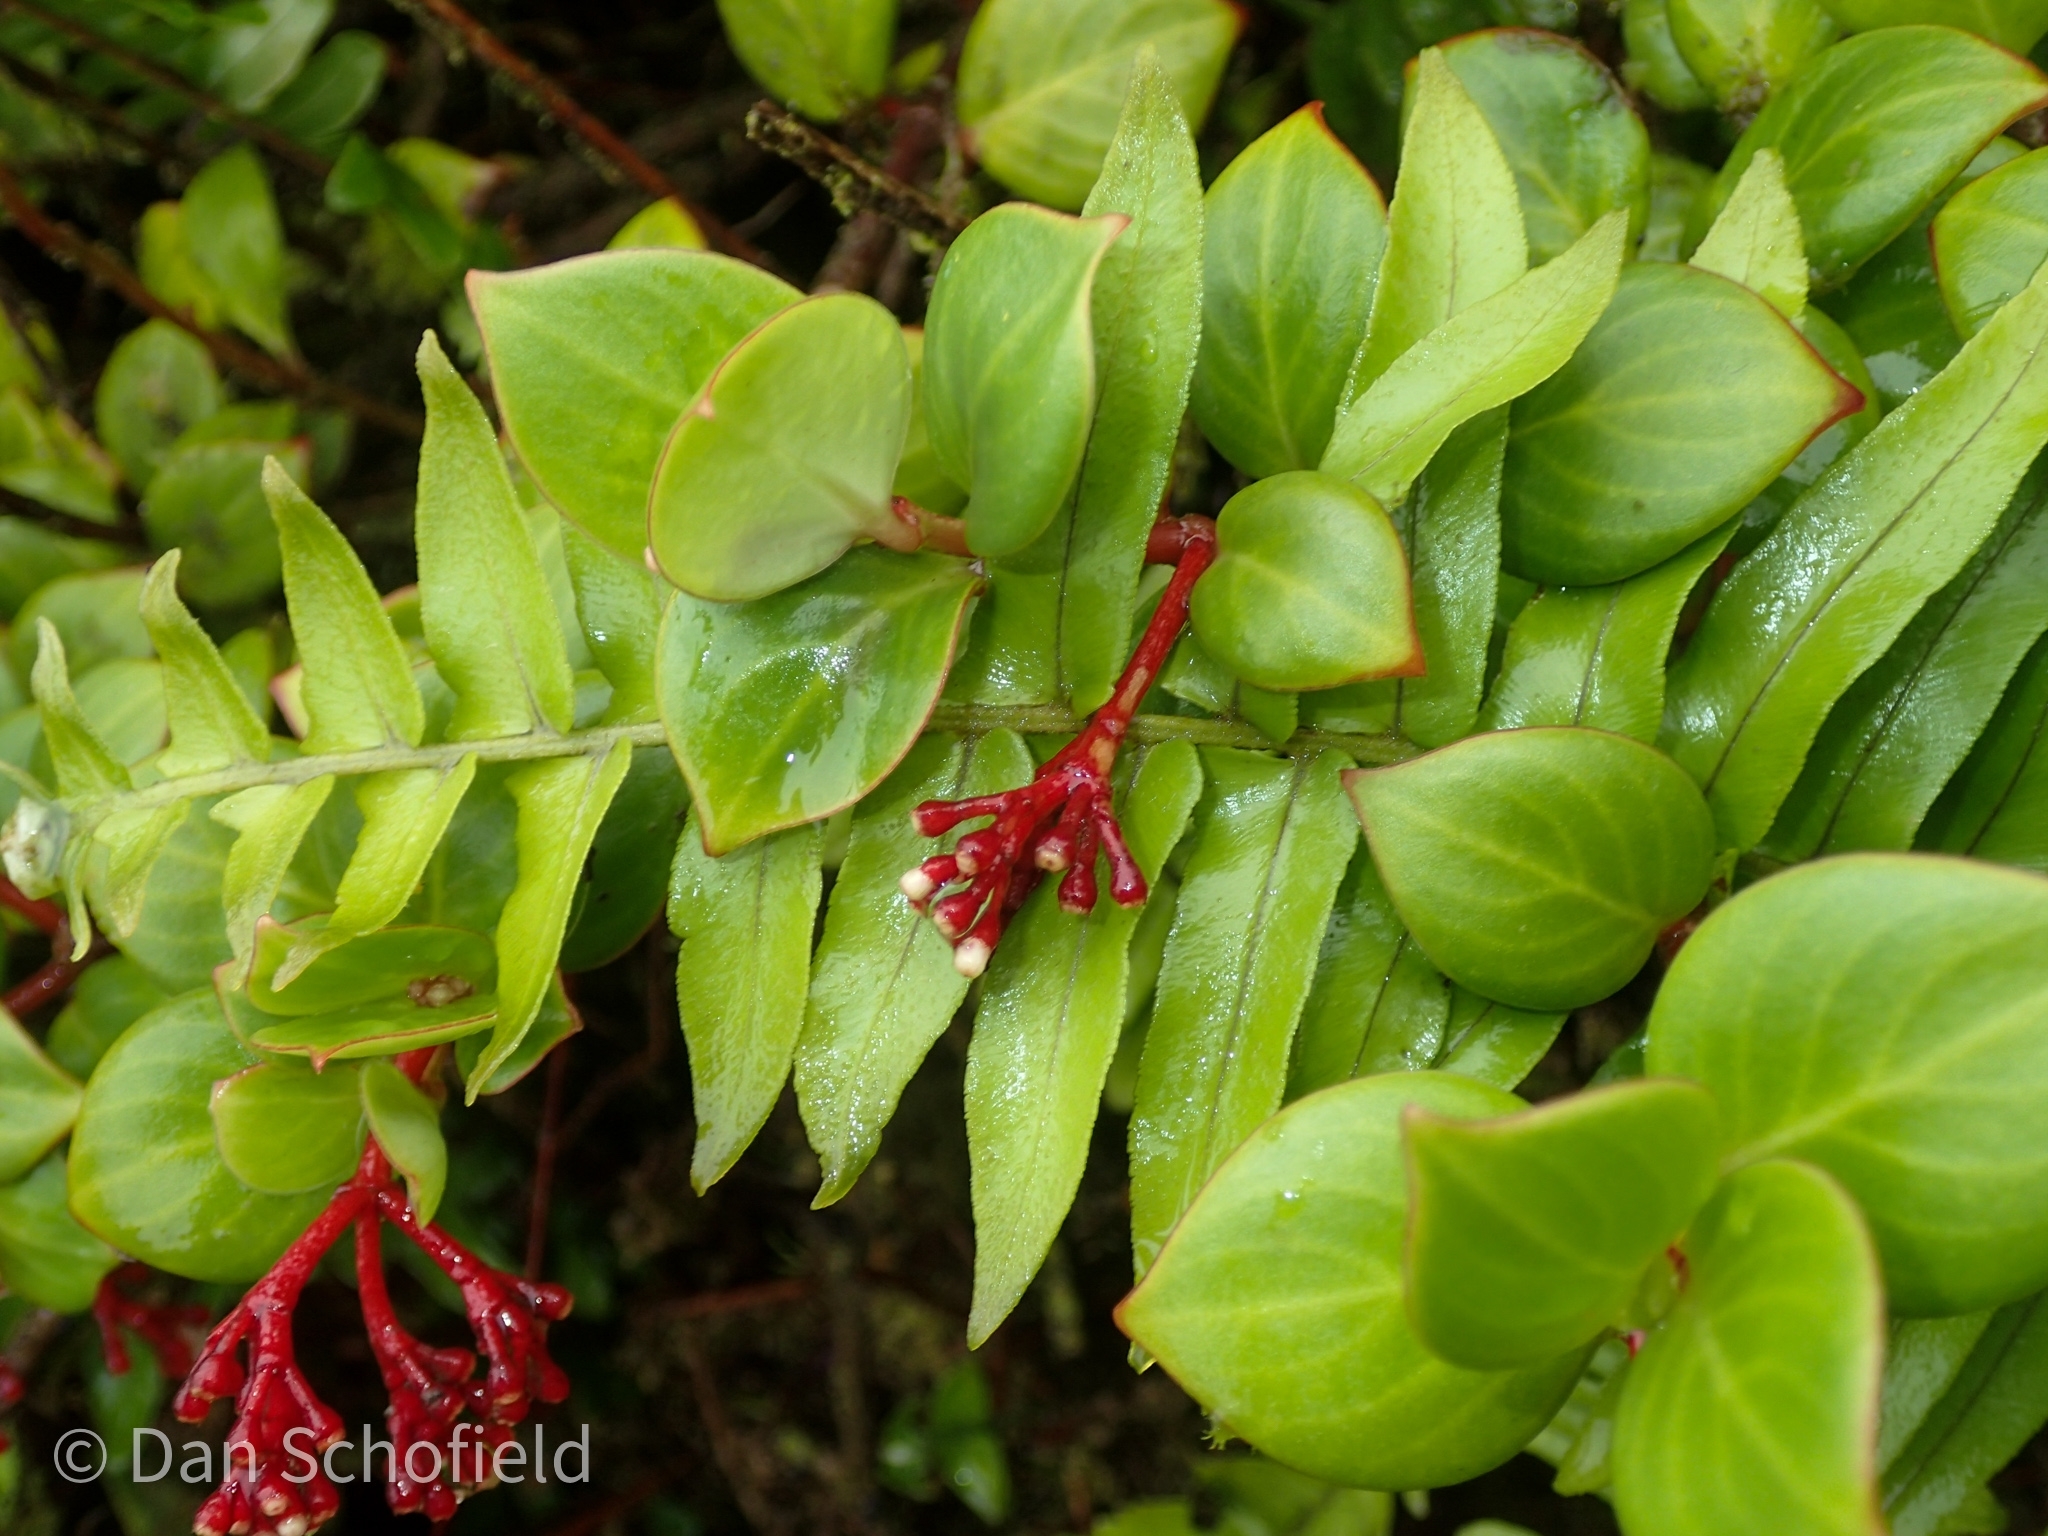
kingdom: Plantae
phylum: Tracheophyta
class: Magnoliopsida
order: Gentianales
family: Rubiaceae
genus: Notopleura
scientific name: Notopleura parasitica
